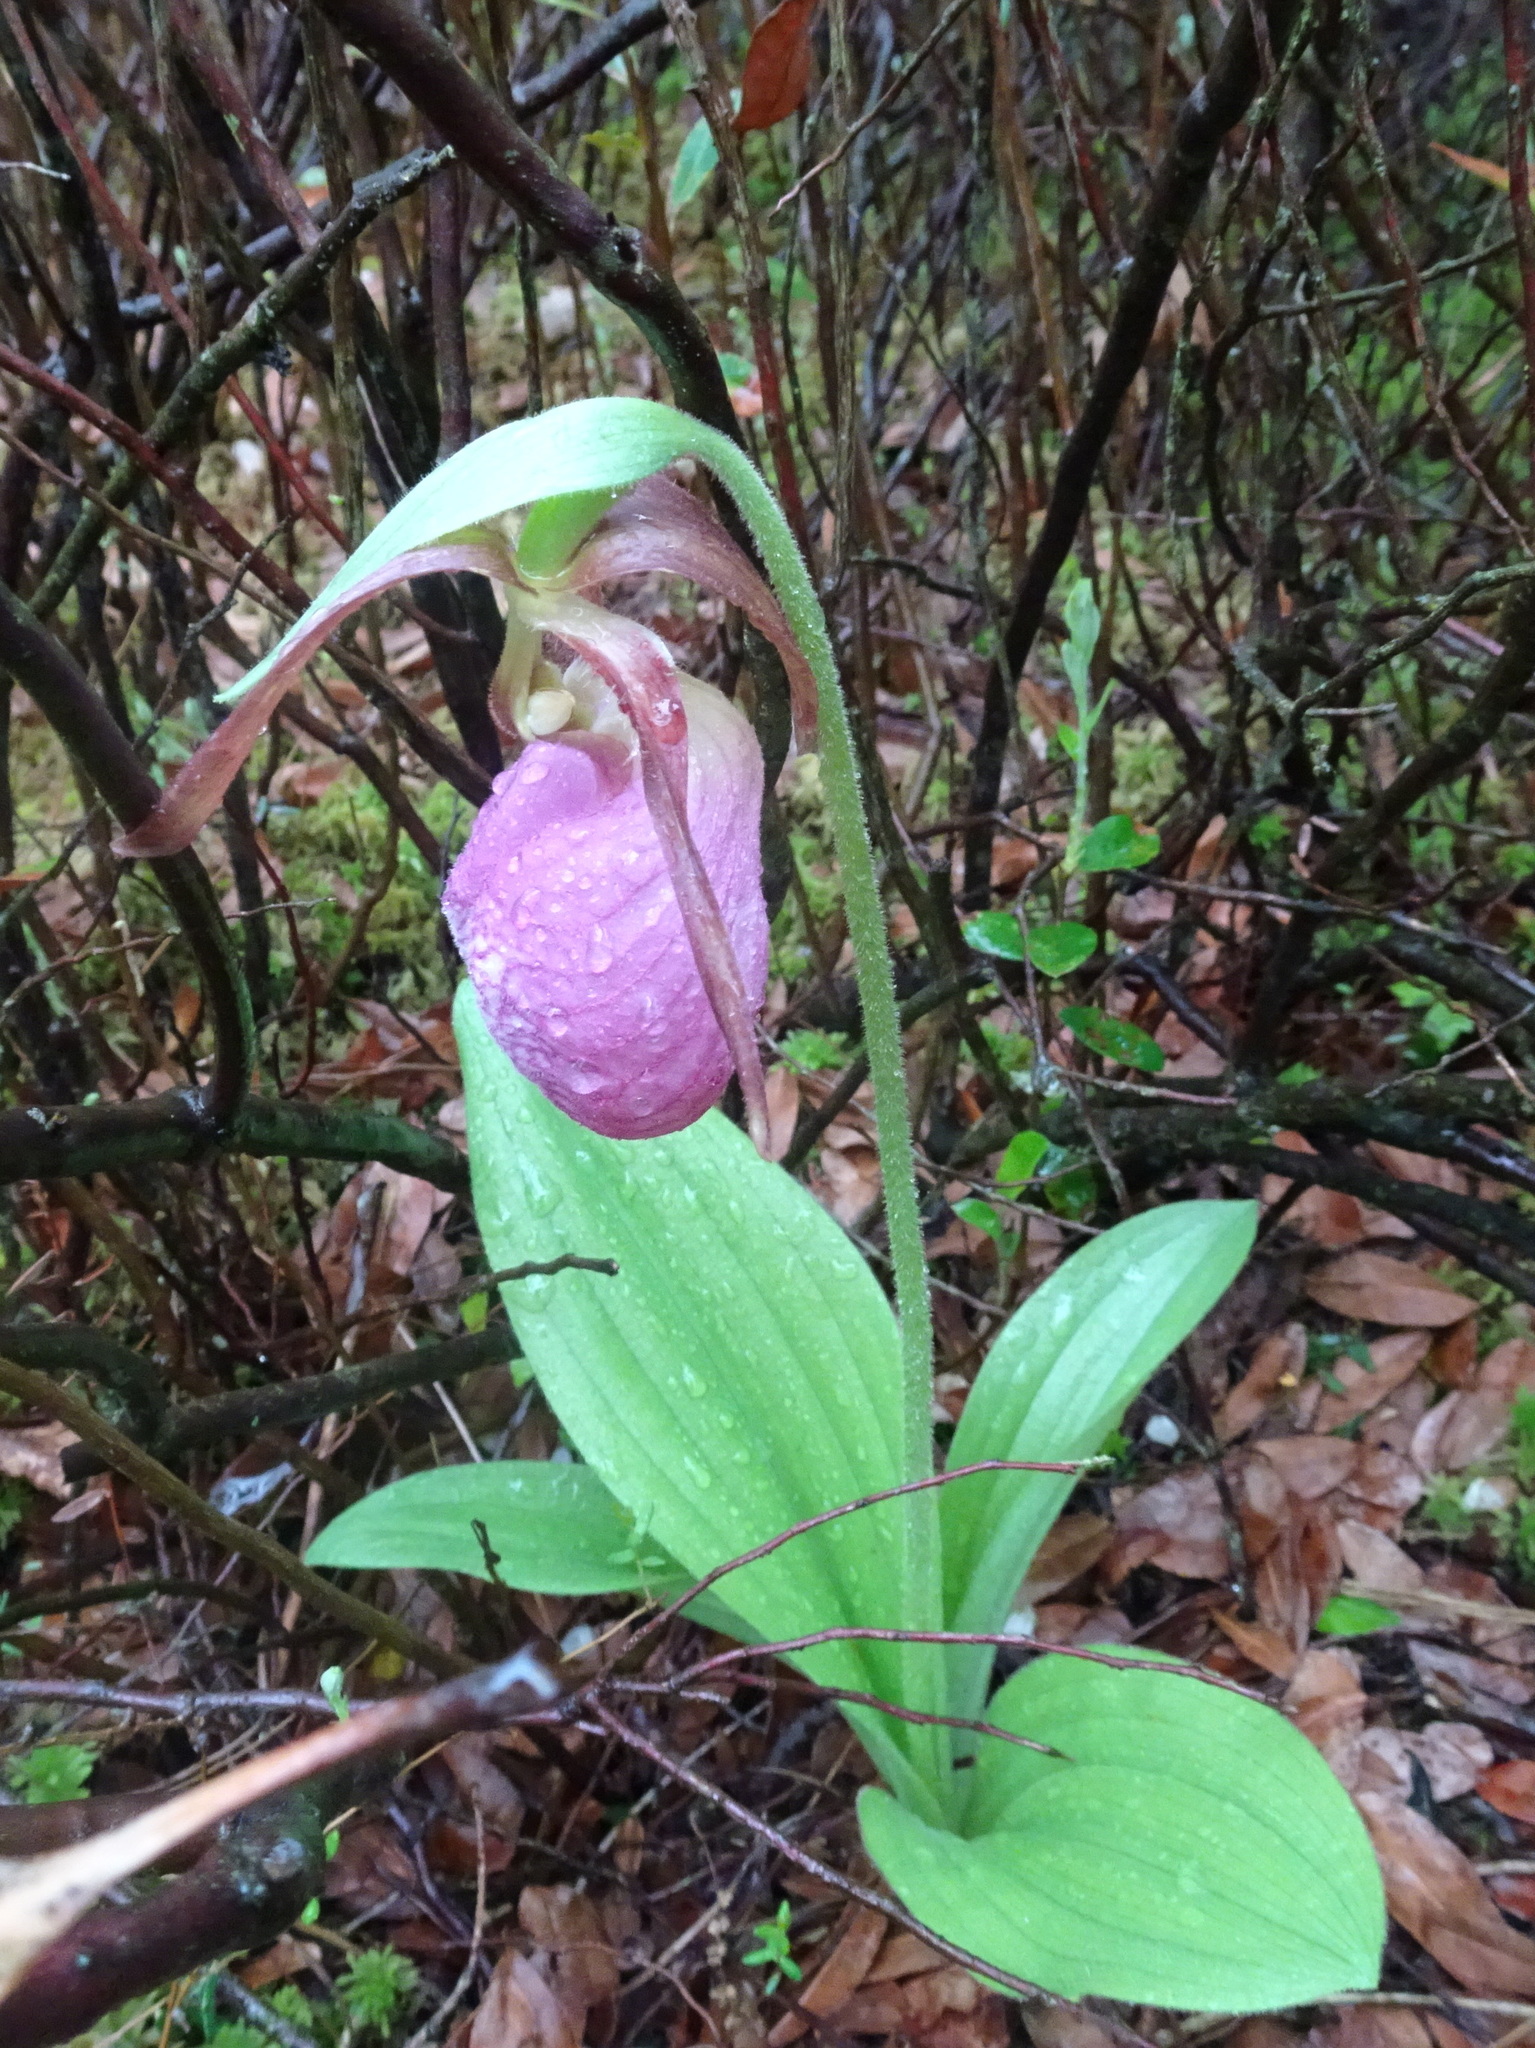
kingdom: Plantae
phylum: Tracheophyta
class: Liliopsida
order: Asparagales
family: Orchidaceae
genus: Cypripedium
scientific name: Cypripedium acaule
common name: Pink lady's-slipper
